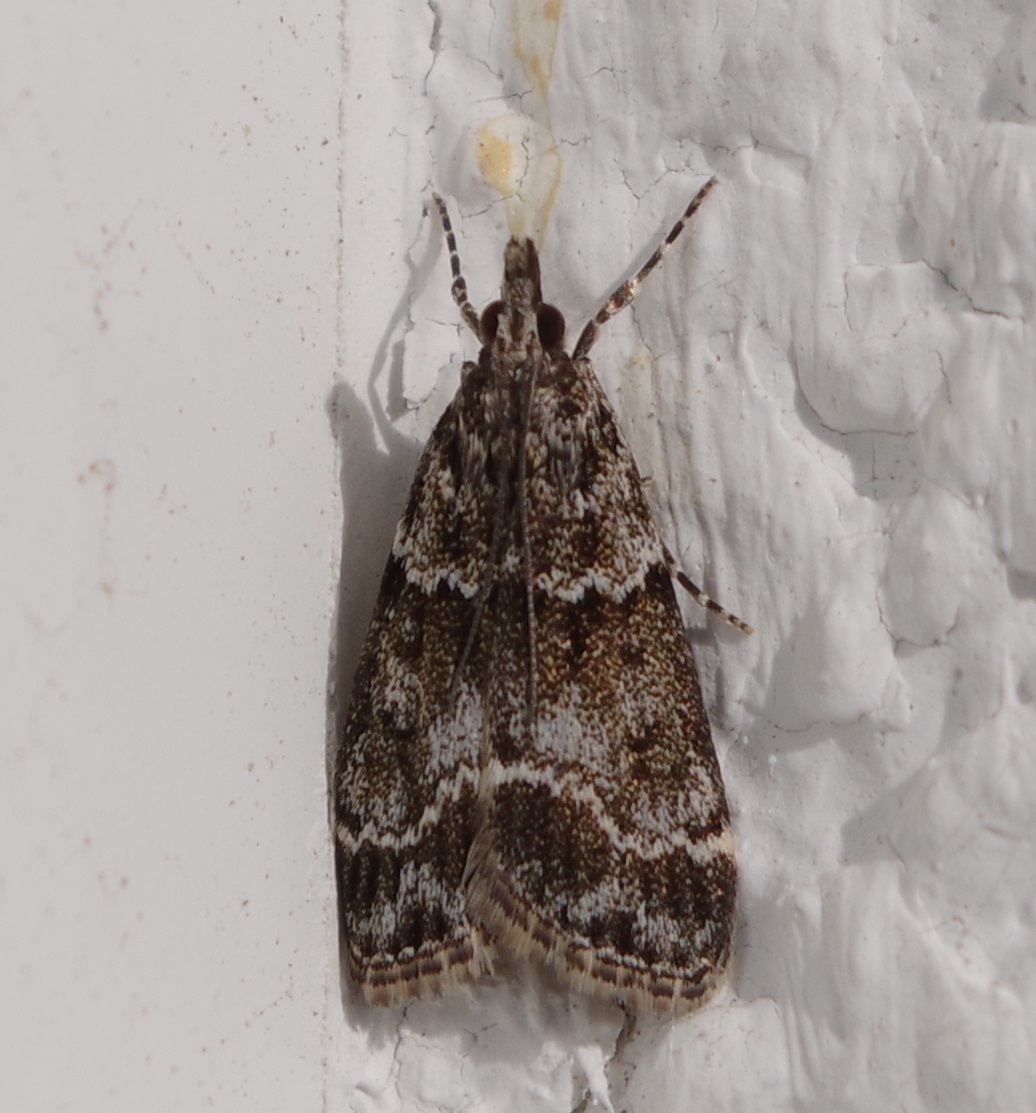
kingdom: Animalia
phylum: Arthropoda
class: Insecta
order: Lepidoptera
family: Crambidae
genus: Eudonia
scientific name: Eudonia mercurella
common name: Small grey
